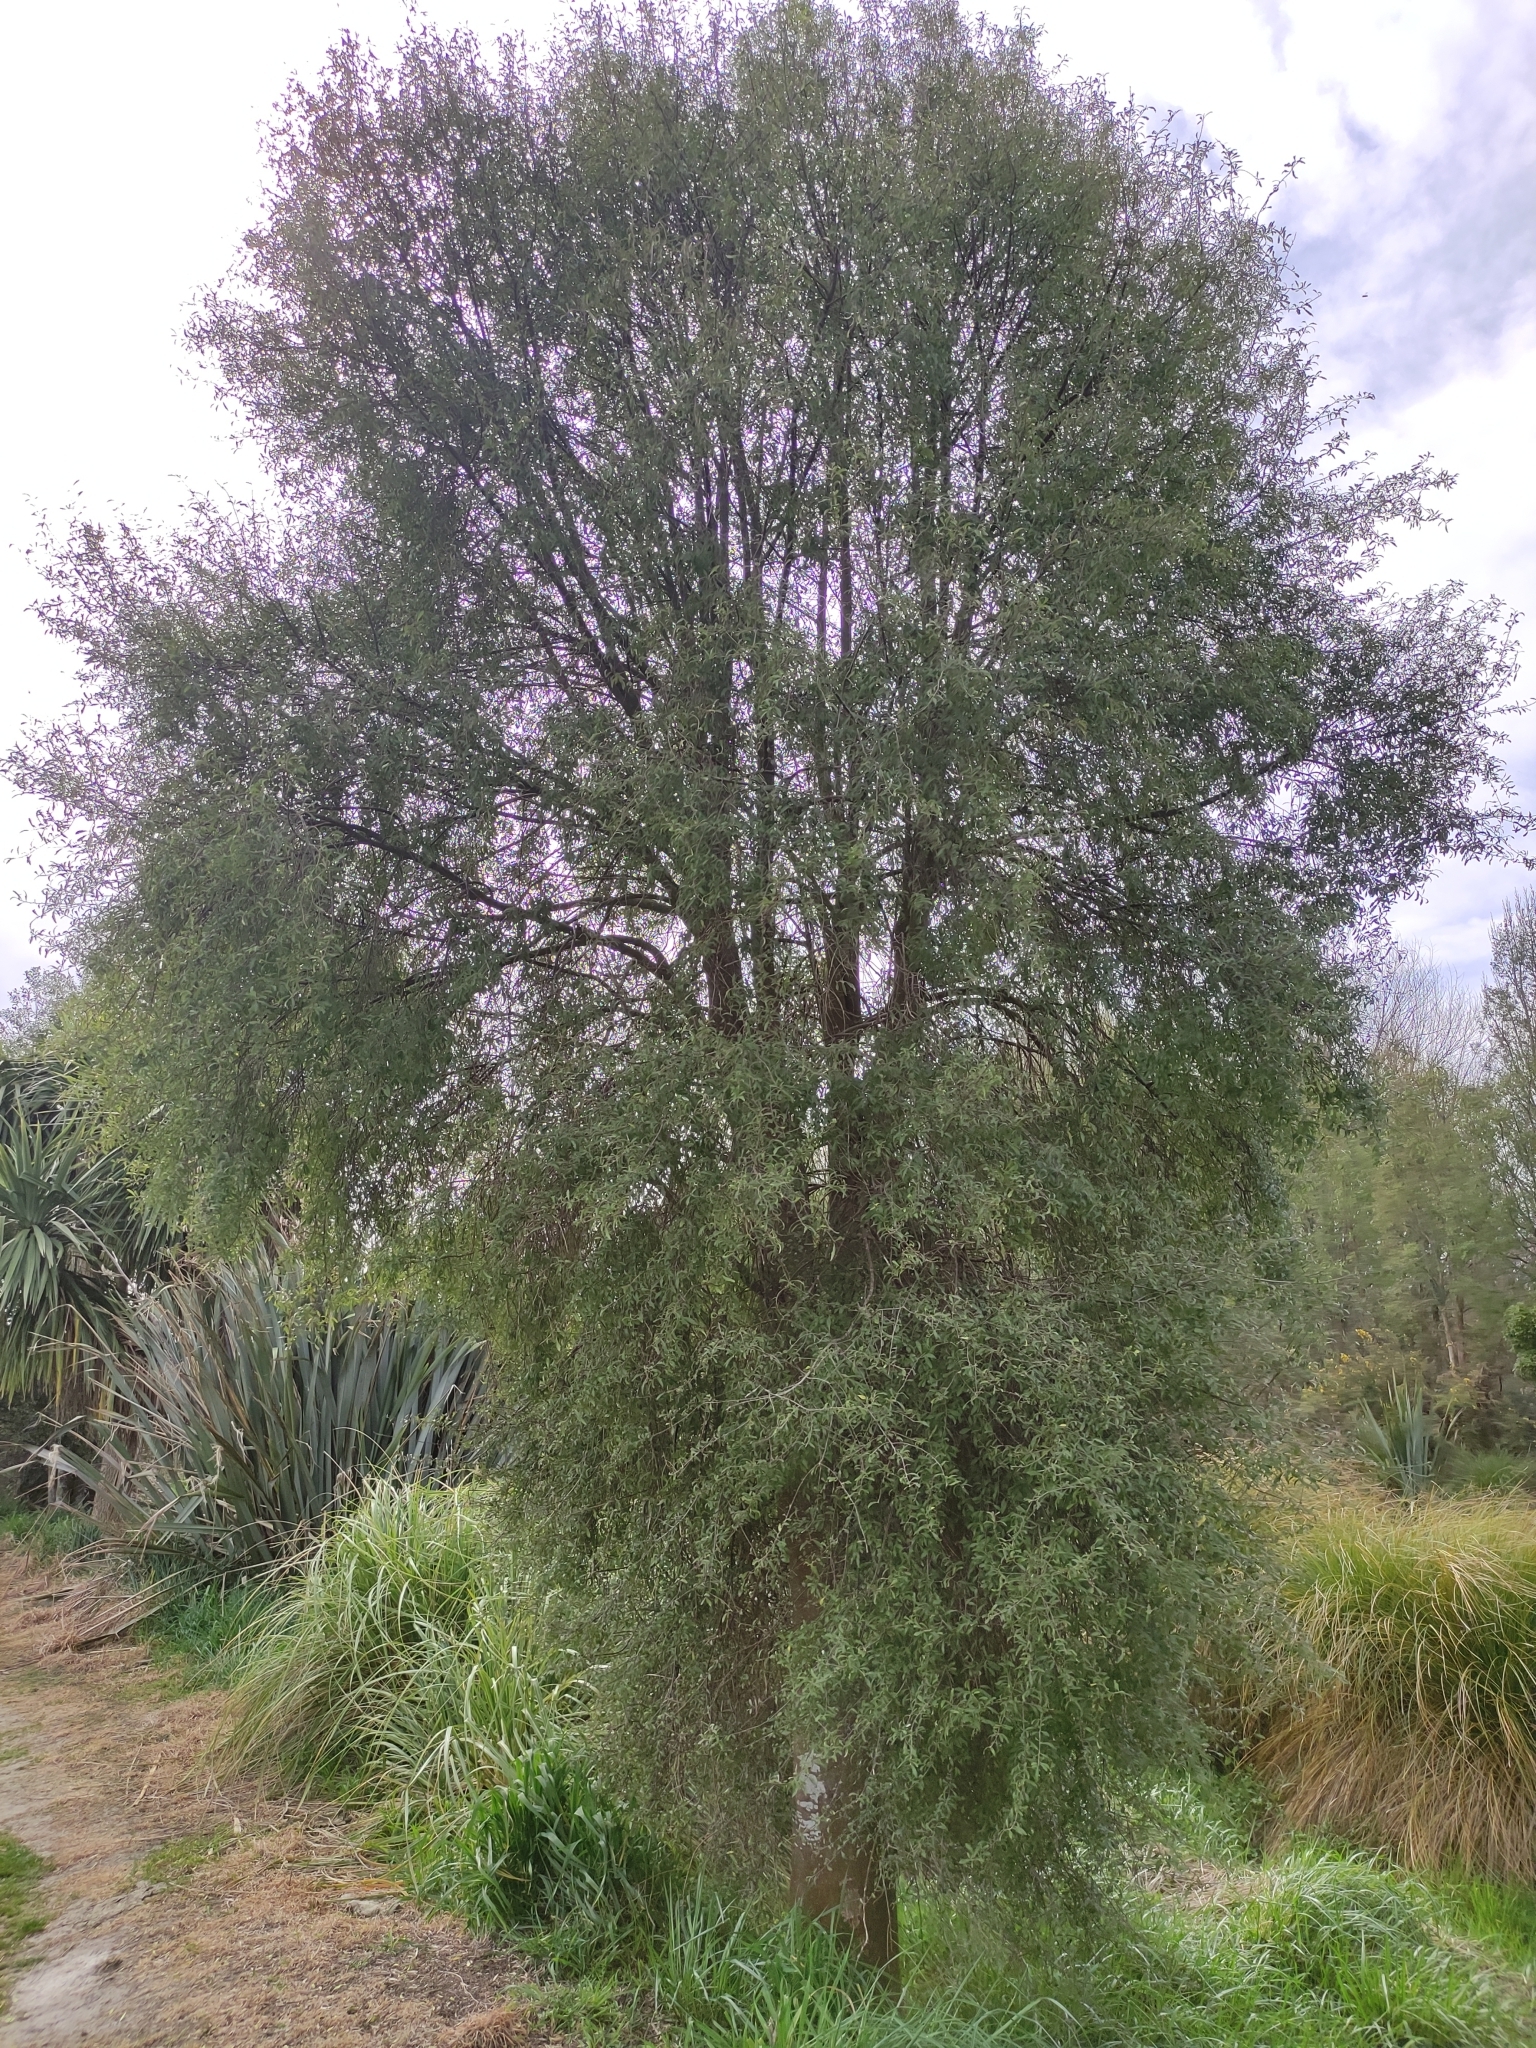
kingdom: Plantae
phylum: Tracheophyta
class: Magnoliopsida
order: Malvales
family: Malvaceae
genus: Hoheria
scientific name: Hoheria angustifolia
